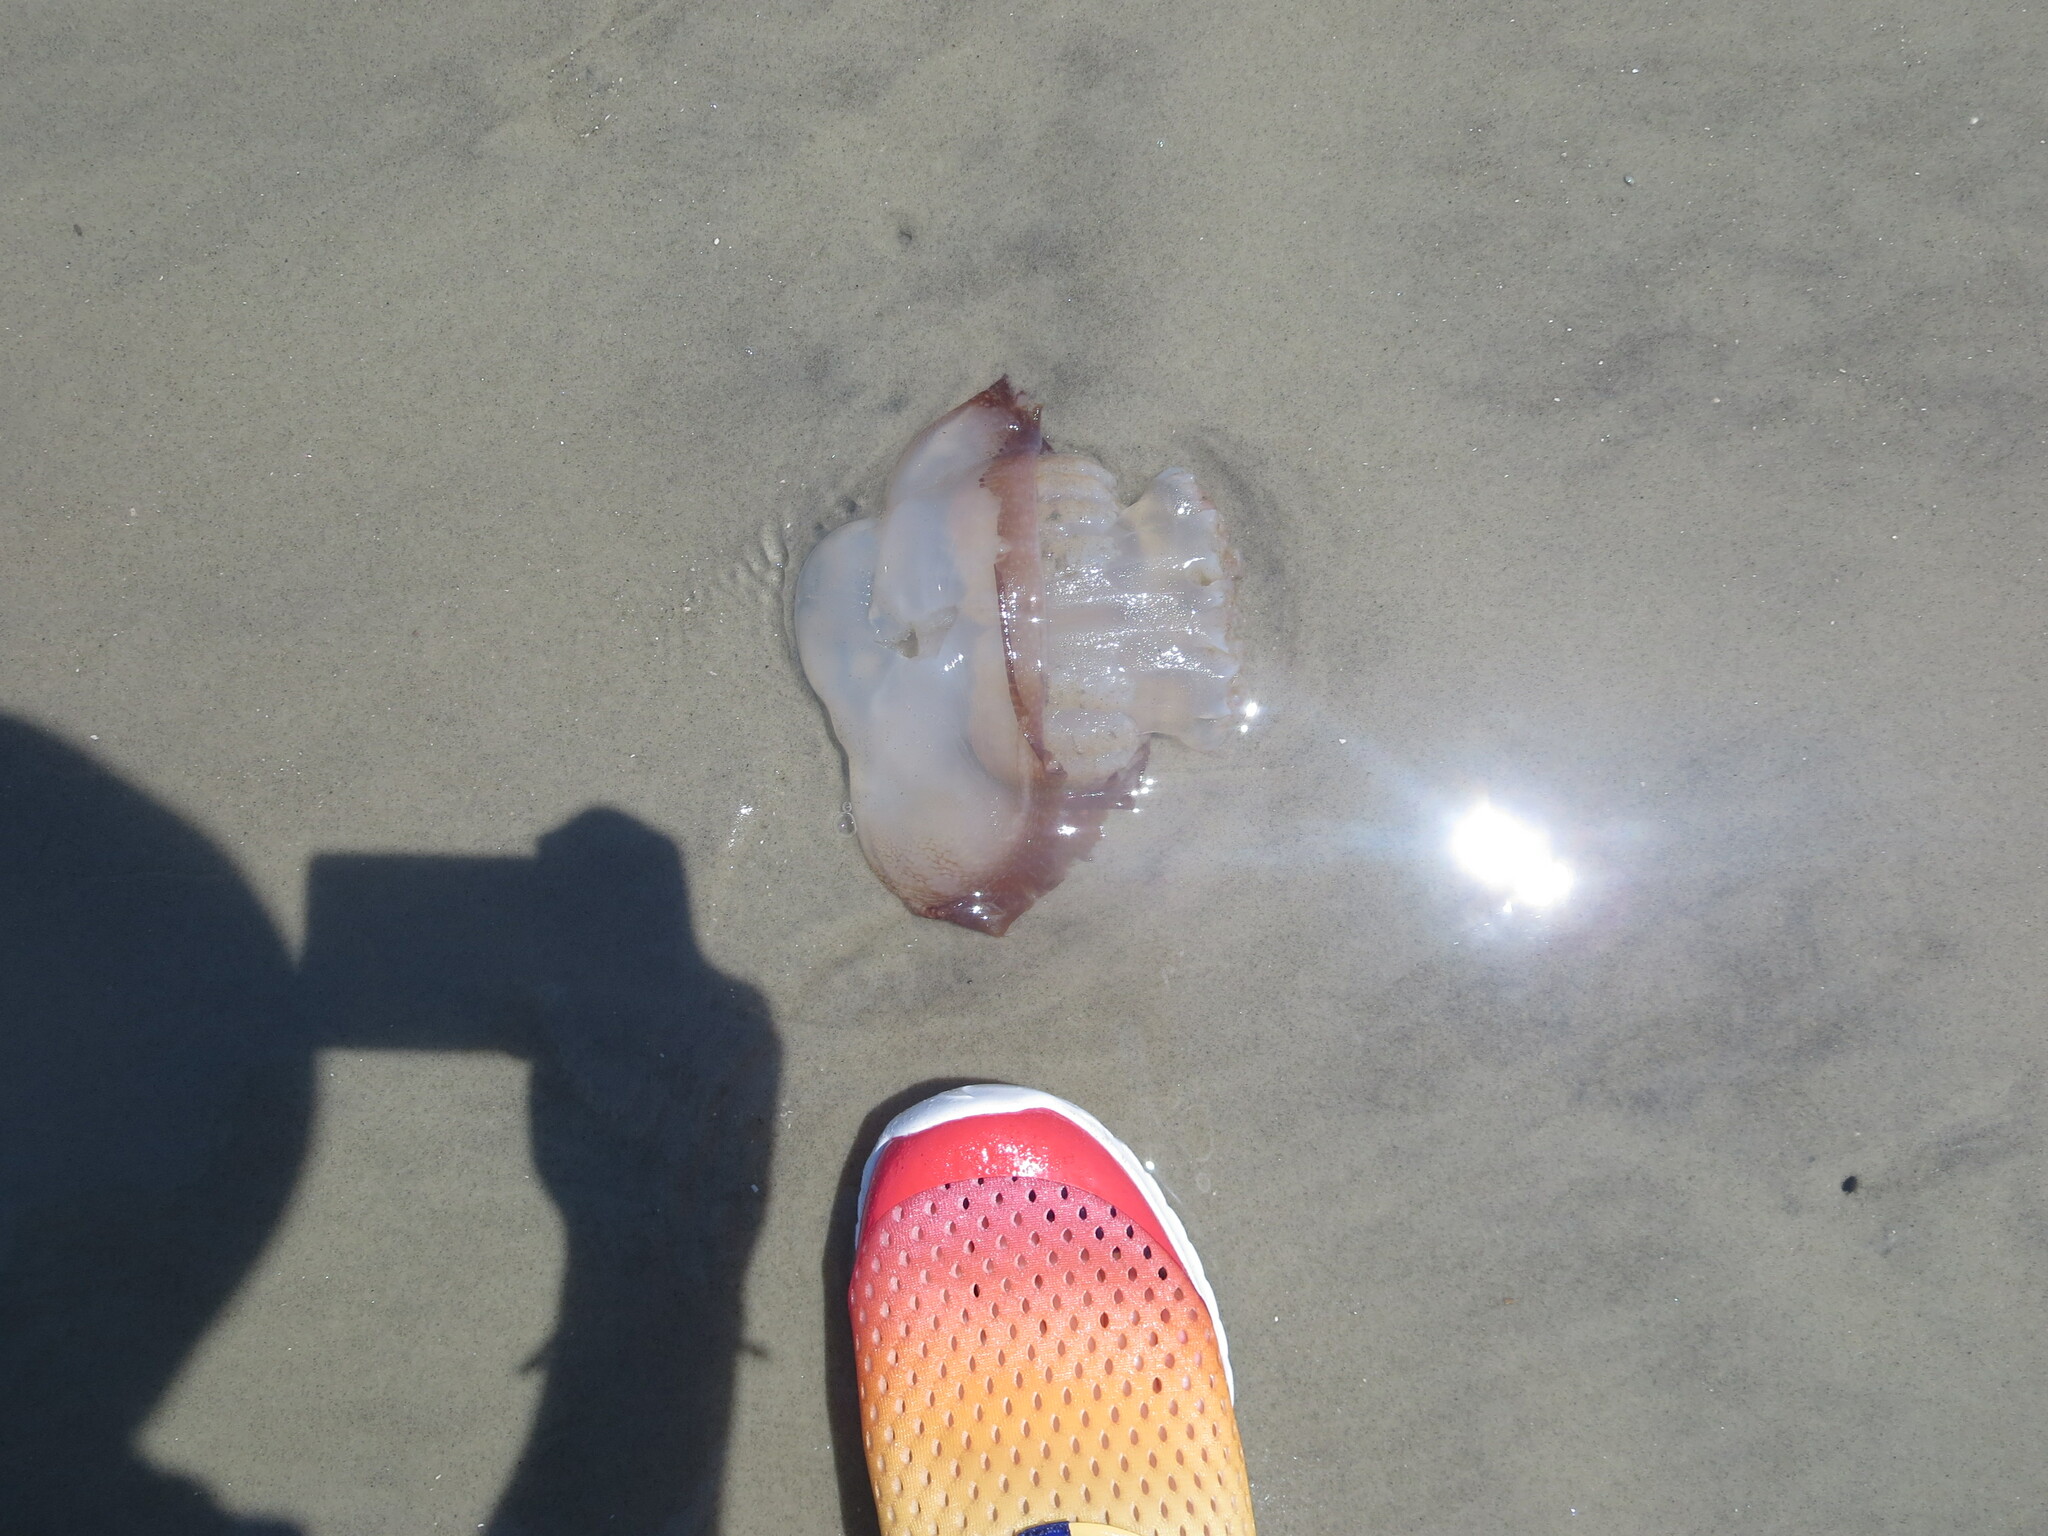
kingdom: Animalia
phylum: Cnidaria
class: Scyphozoa
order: Rhizostomeae
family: Stomolophidae
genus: Stomolophus
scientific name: Stomolophus meleagris
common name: Cabbagehead
